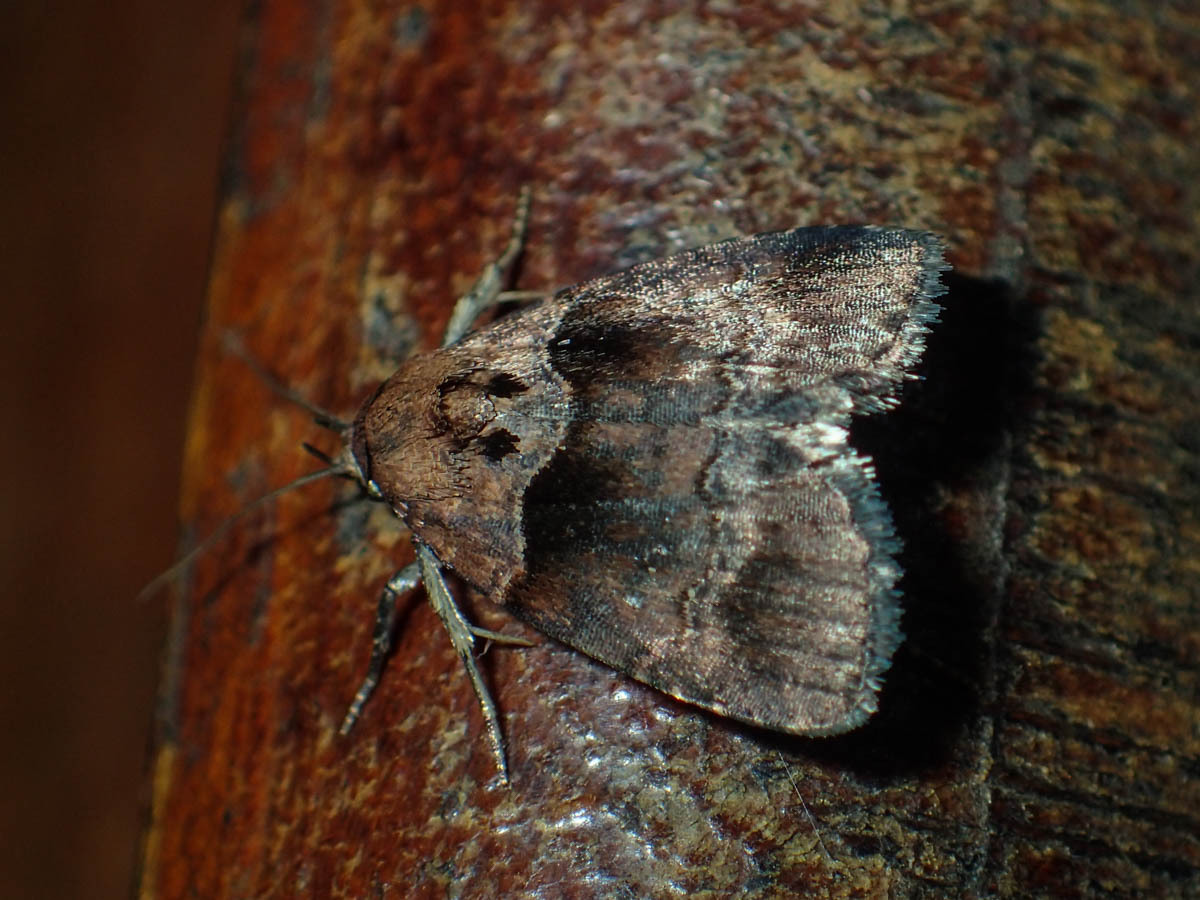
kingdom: Animalia
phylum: Arthropoda
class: Insecta
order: Lepidoptera
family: Noctuidae
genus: Cretonia
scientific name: Cretonia forficula
